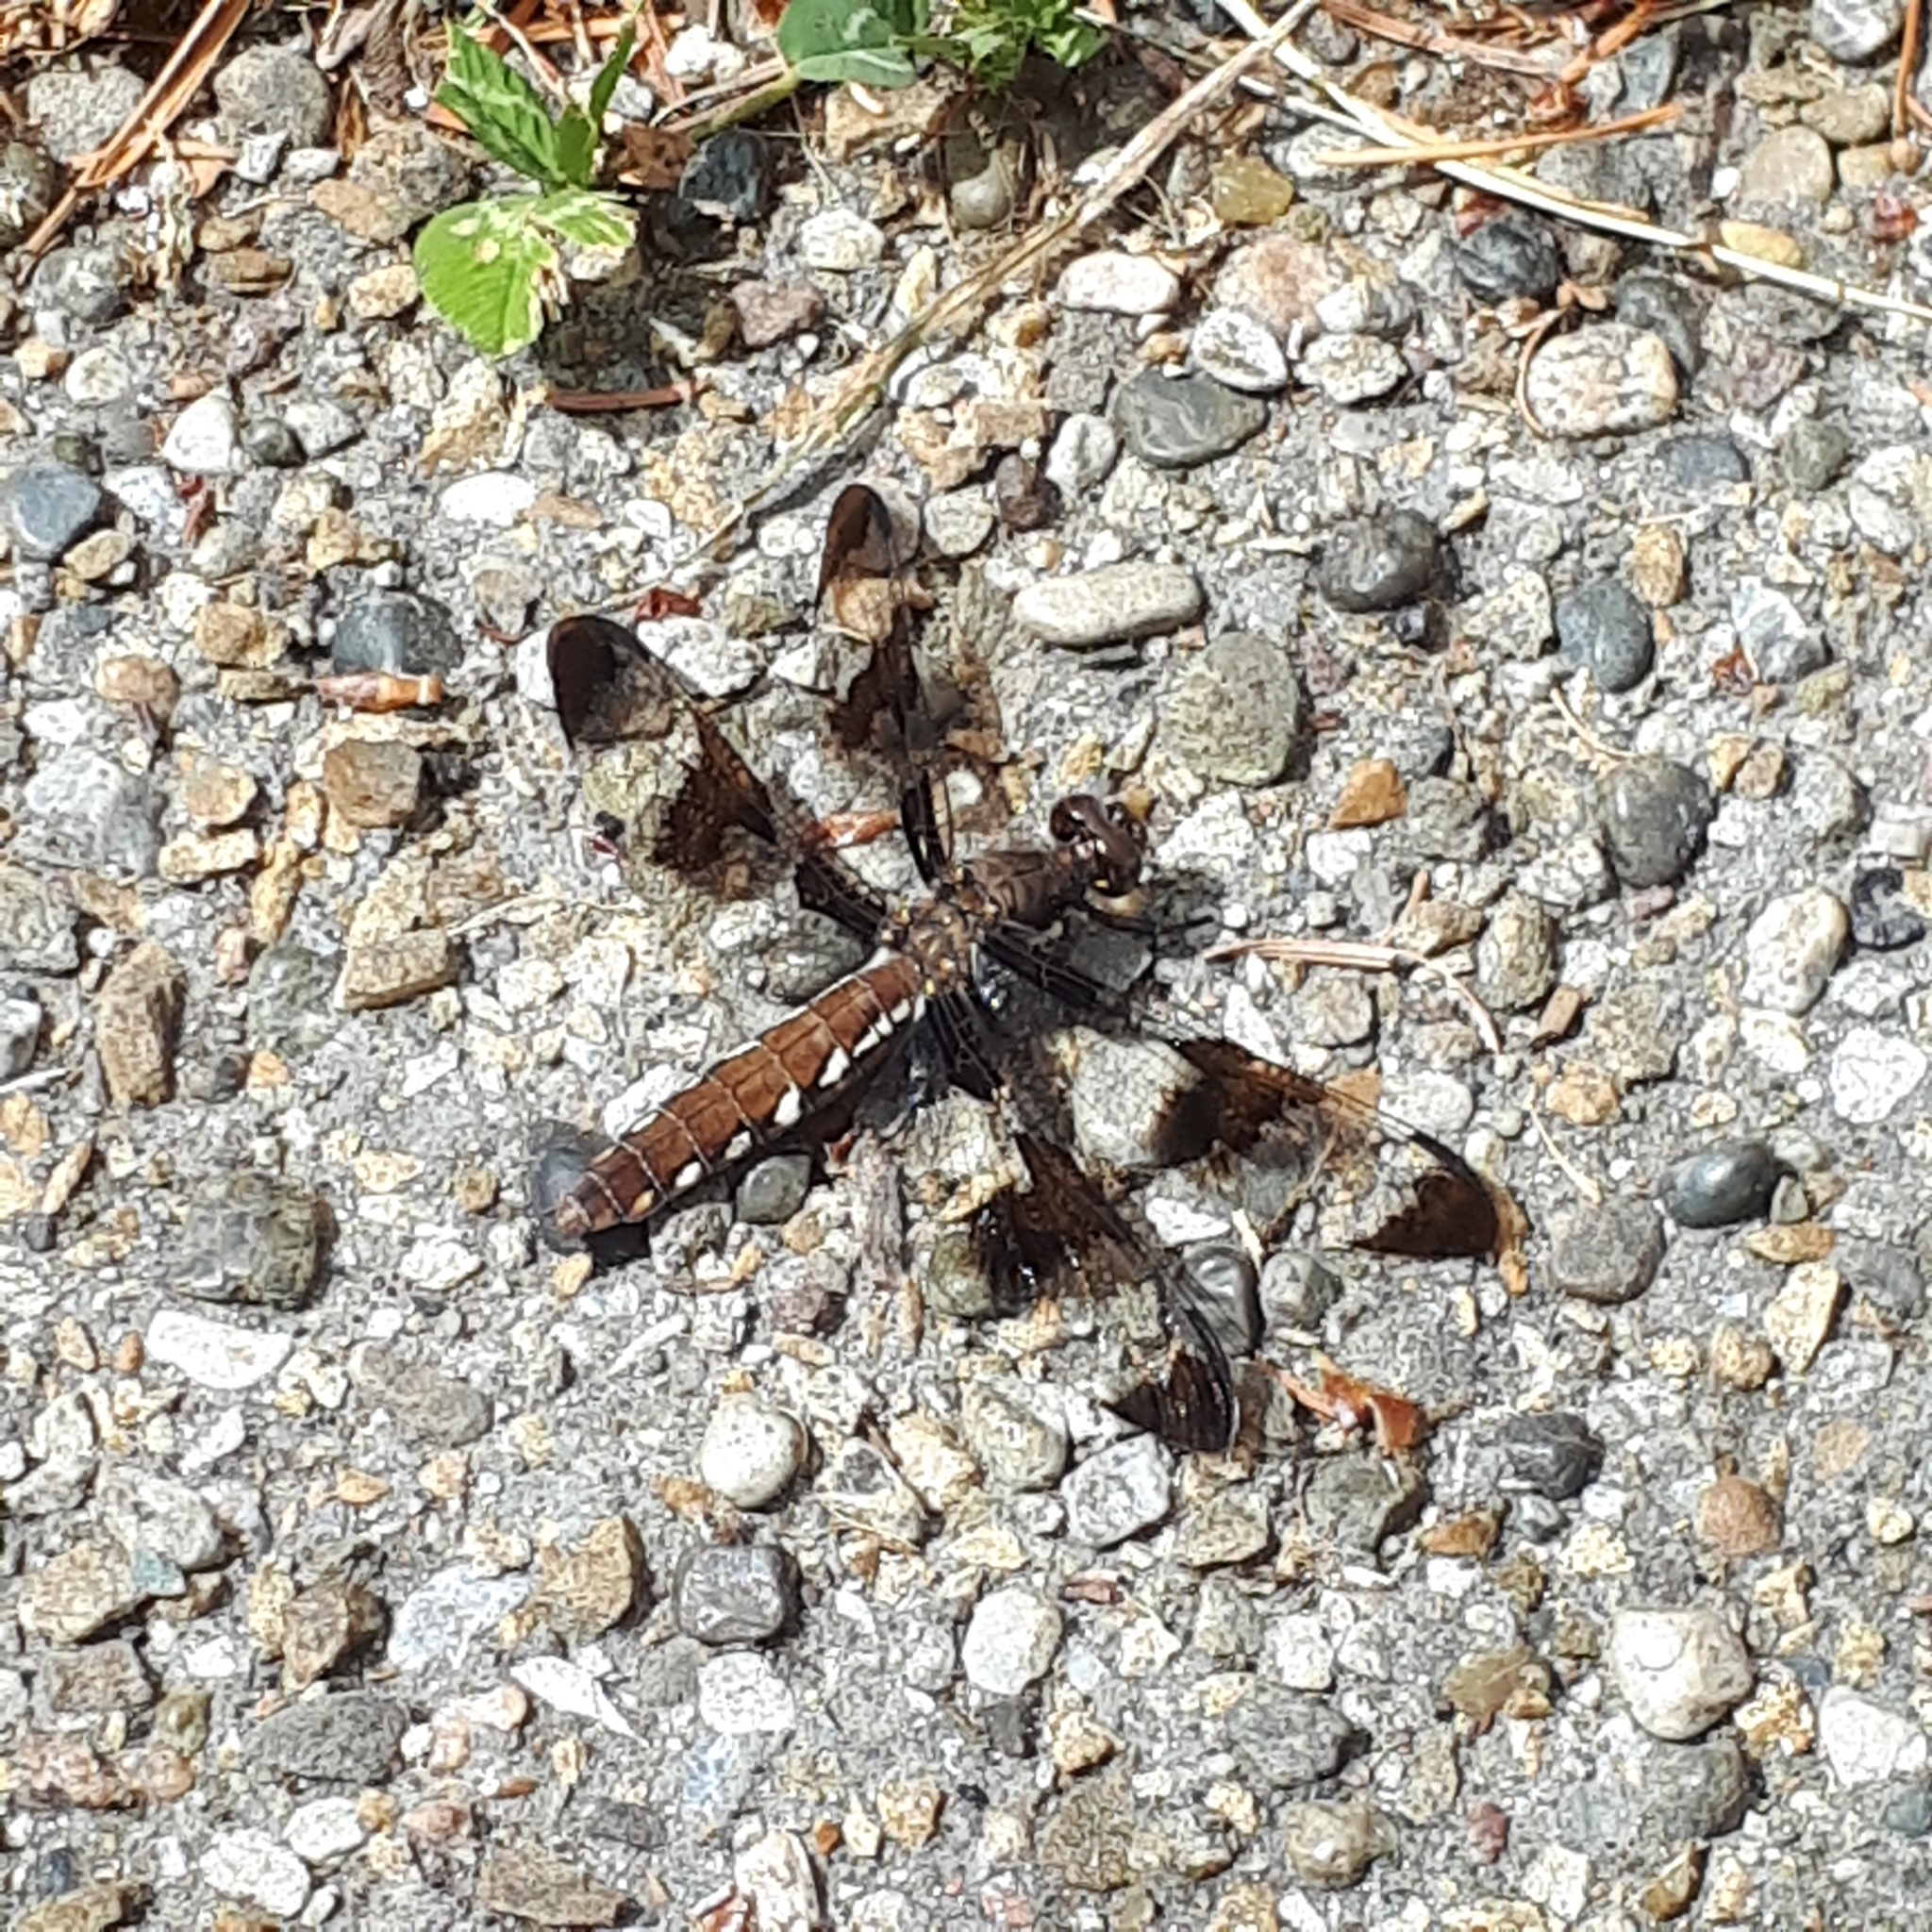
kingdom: Animalia
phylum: Arthropoda
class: Insecta
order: Odonata
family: Libellulidae
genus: Plathemis
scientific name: Plathemis lydia
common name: Common whitetail
